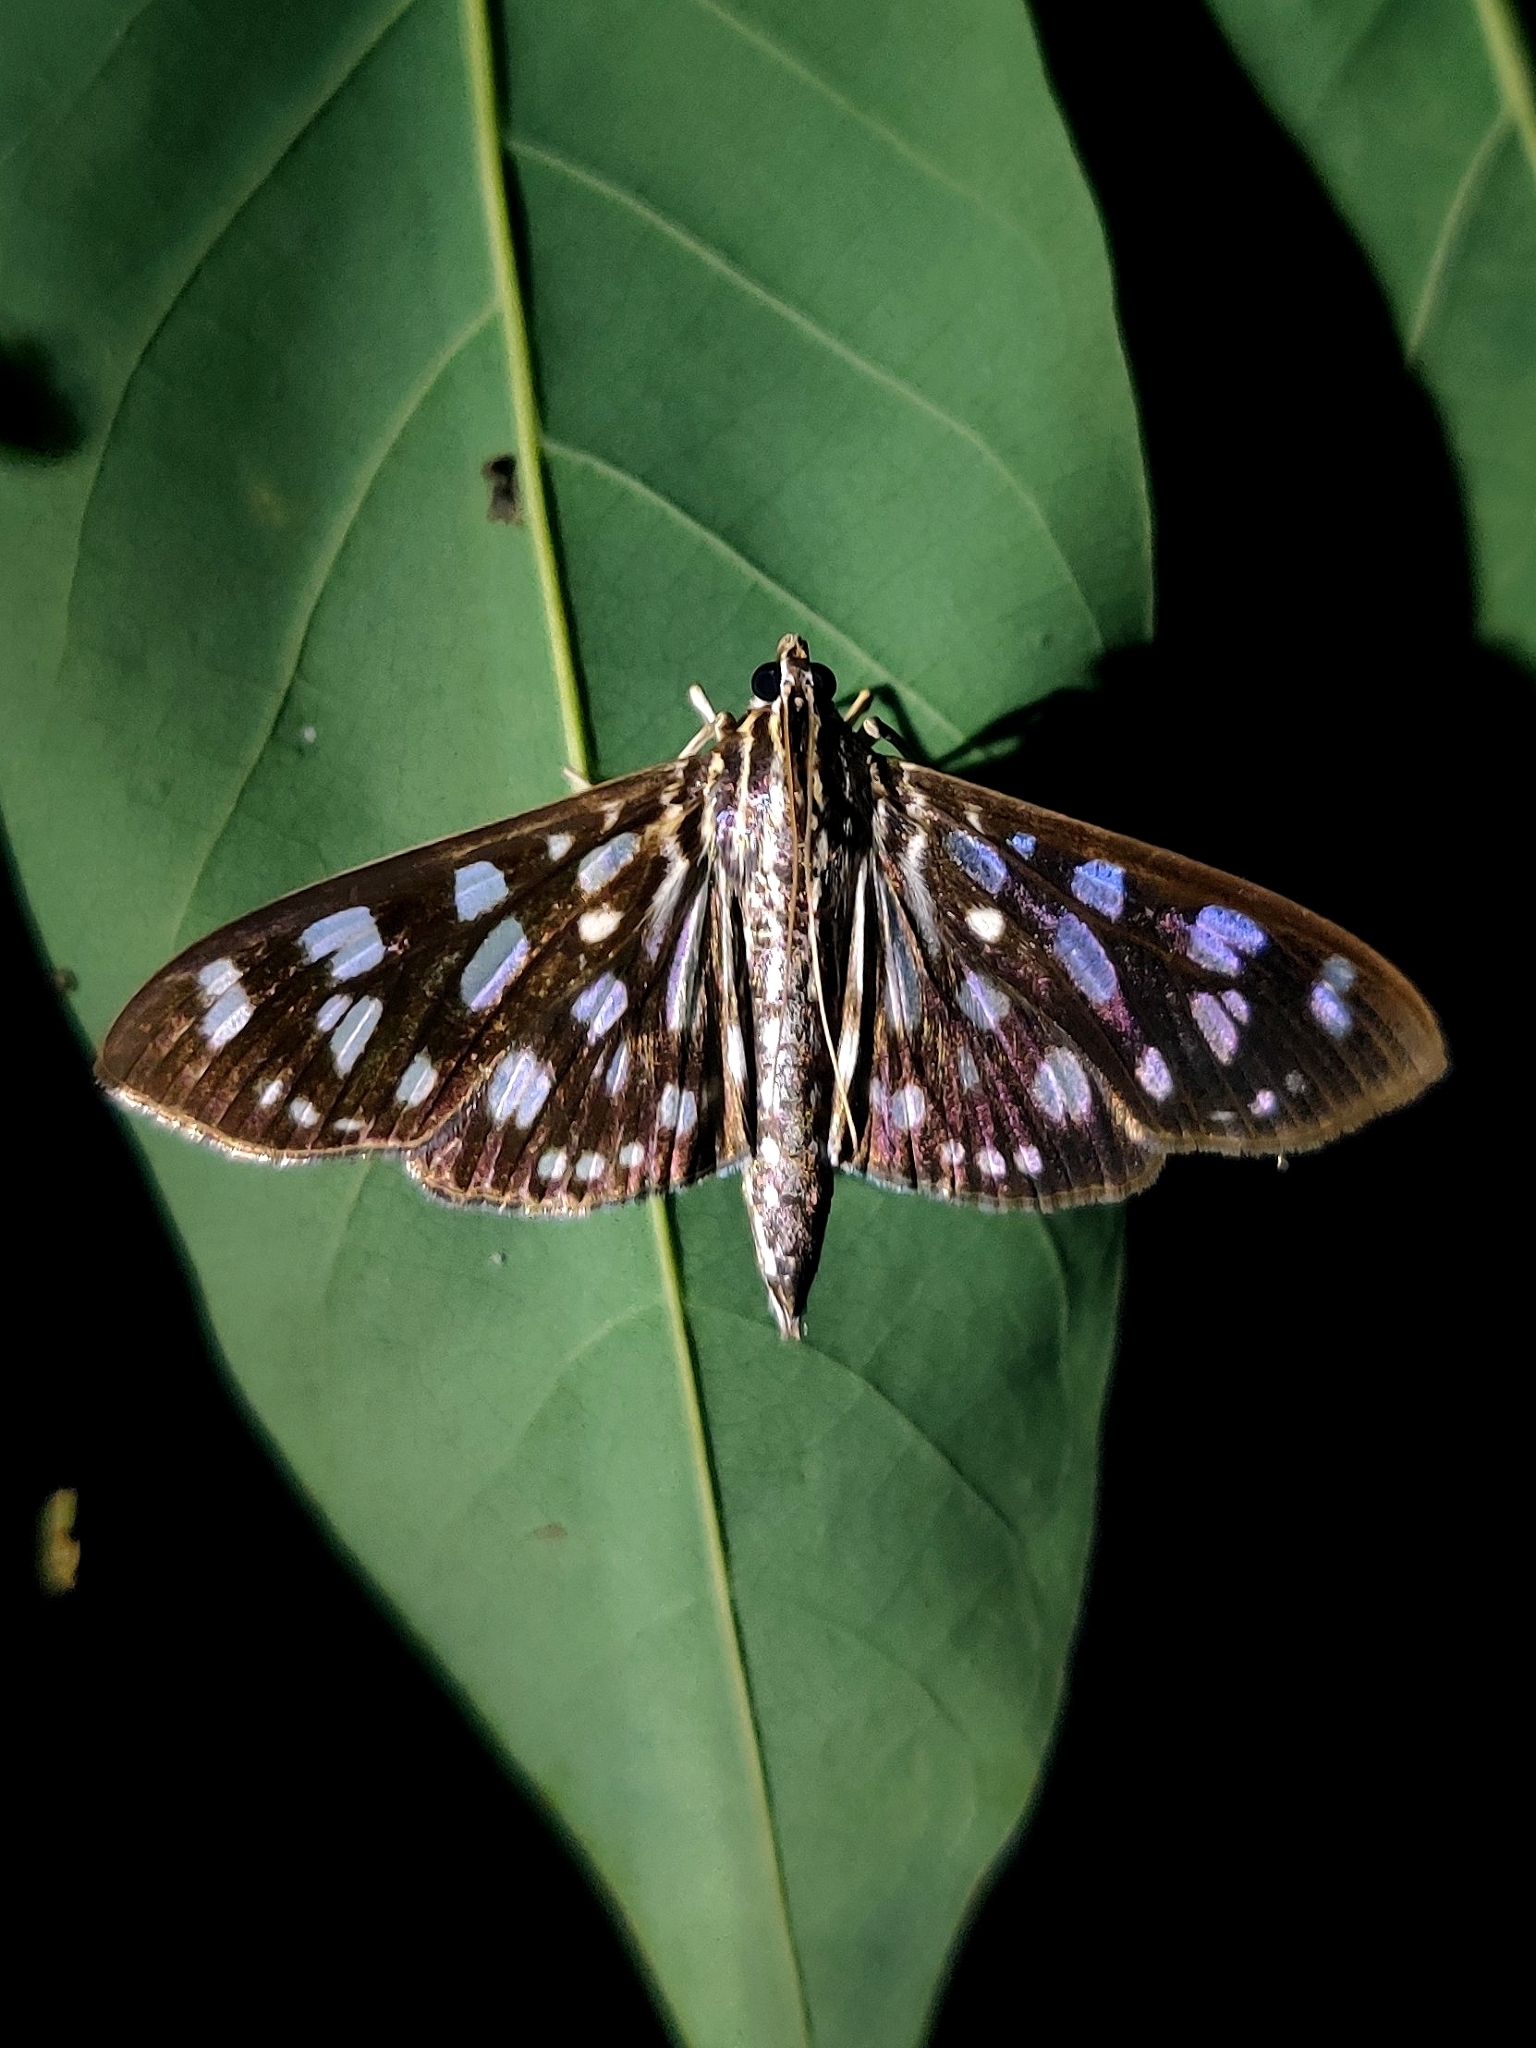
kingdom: Animalia
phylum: Arthropoda
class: Insecta
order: Lepidoptera
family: Crambidae
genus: Pygospila
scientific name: Pygospila tyres
